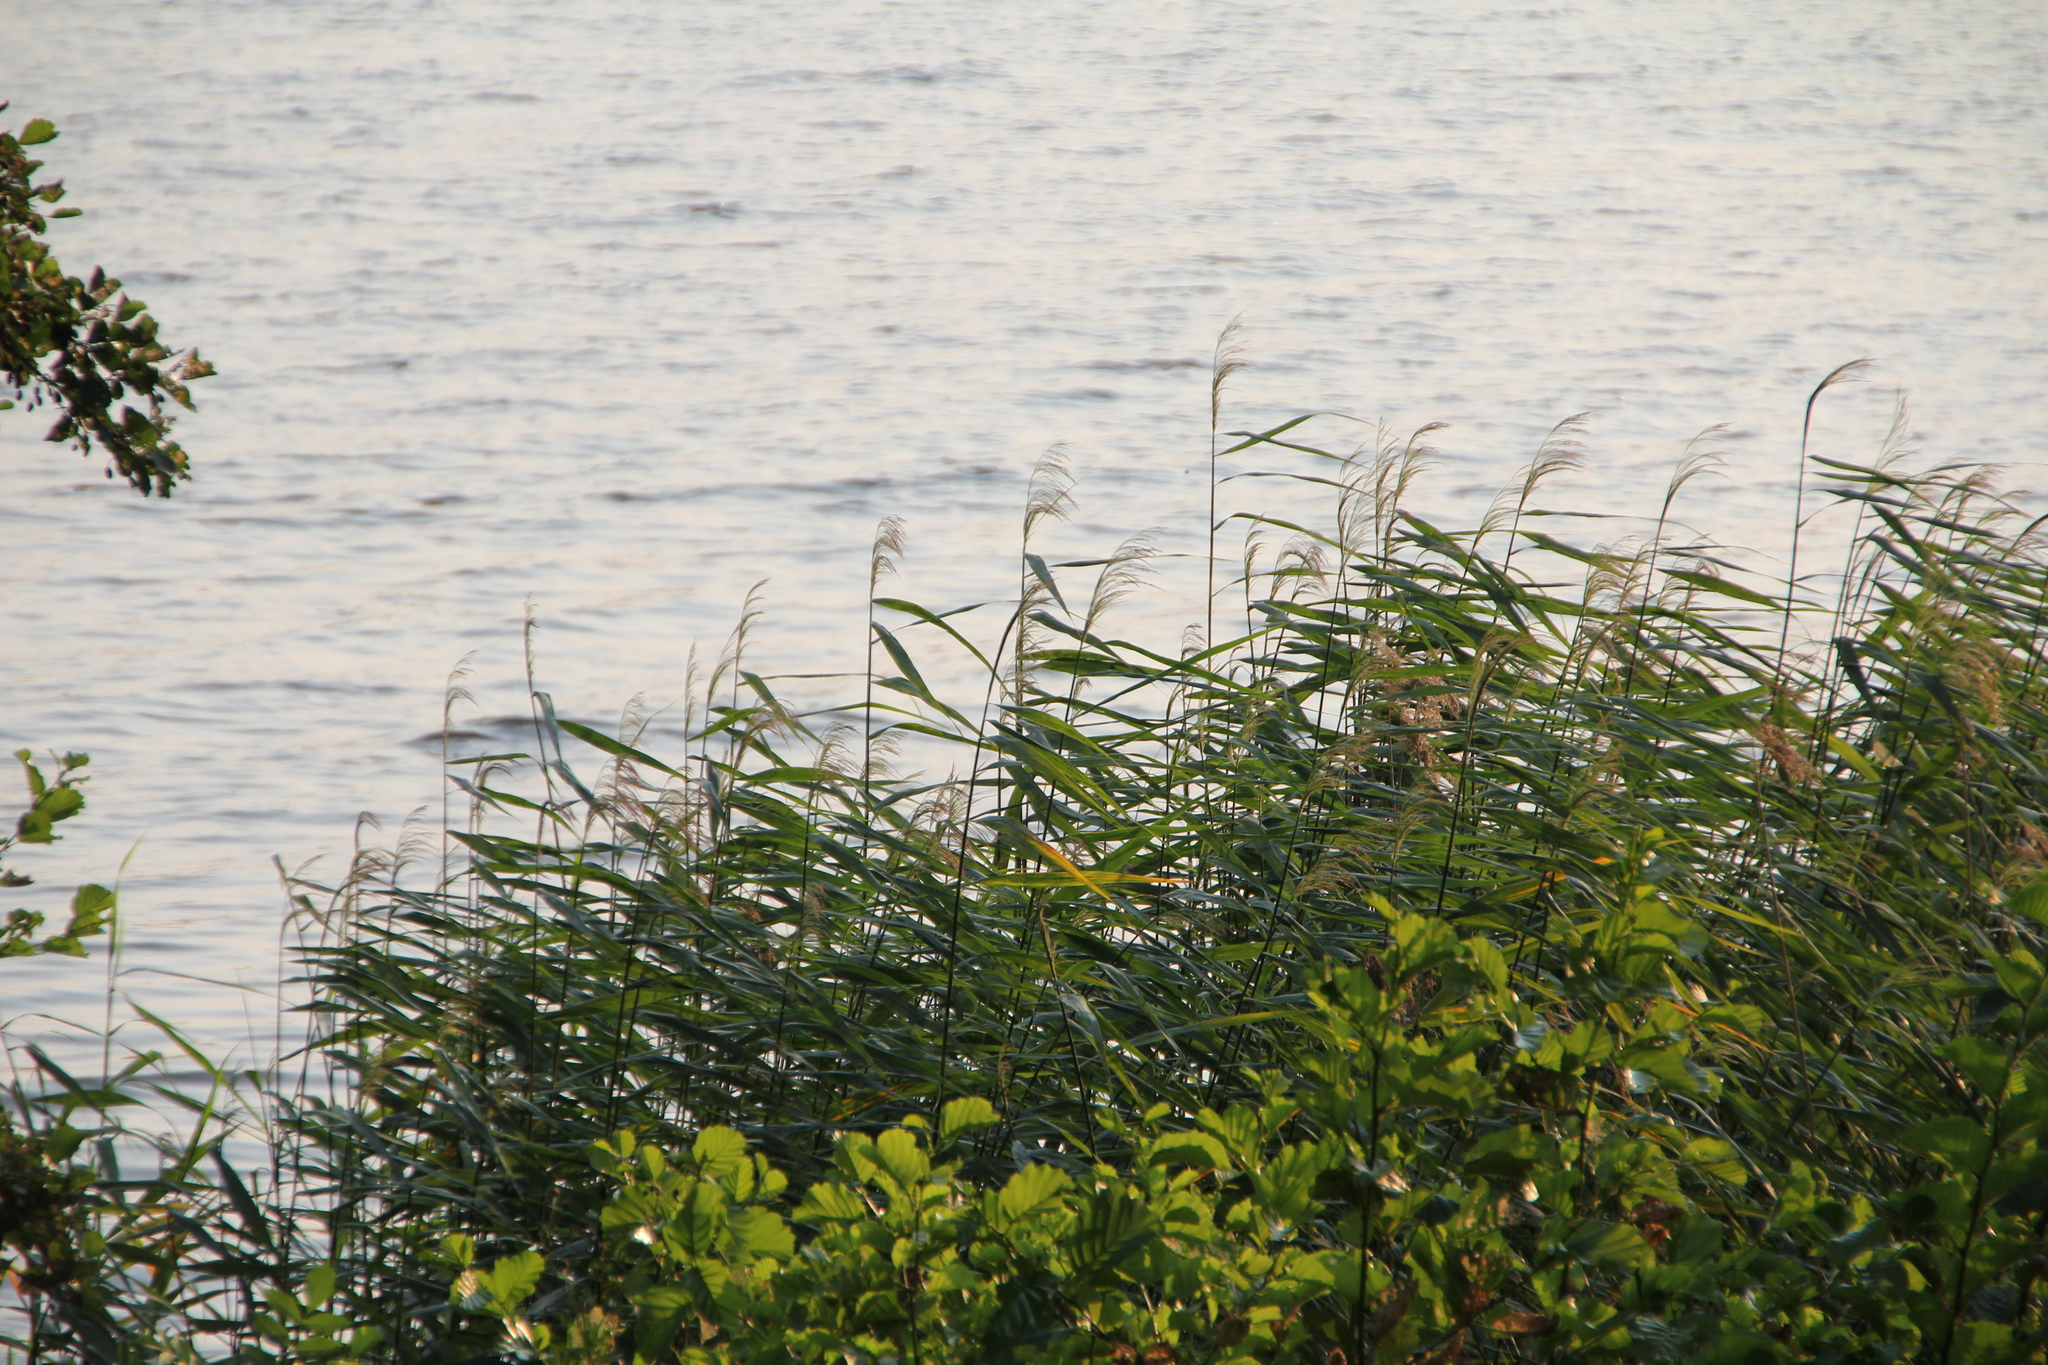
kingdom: Plantae
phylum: Tracheophyta
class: Liliopsida
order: Poales
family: Poaceae
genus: Phragmites
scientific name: Phragmites australis
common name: Common reed
